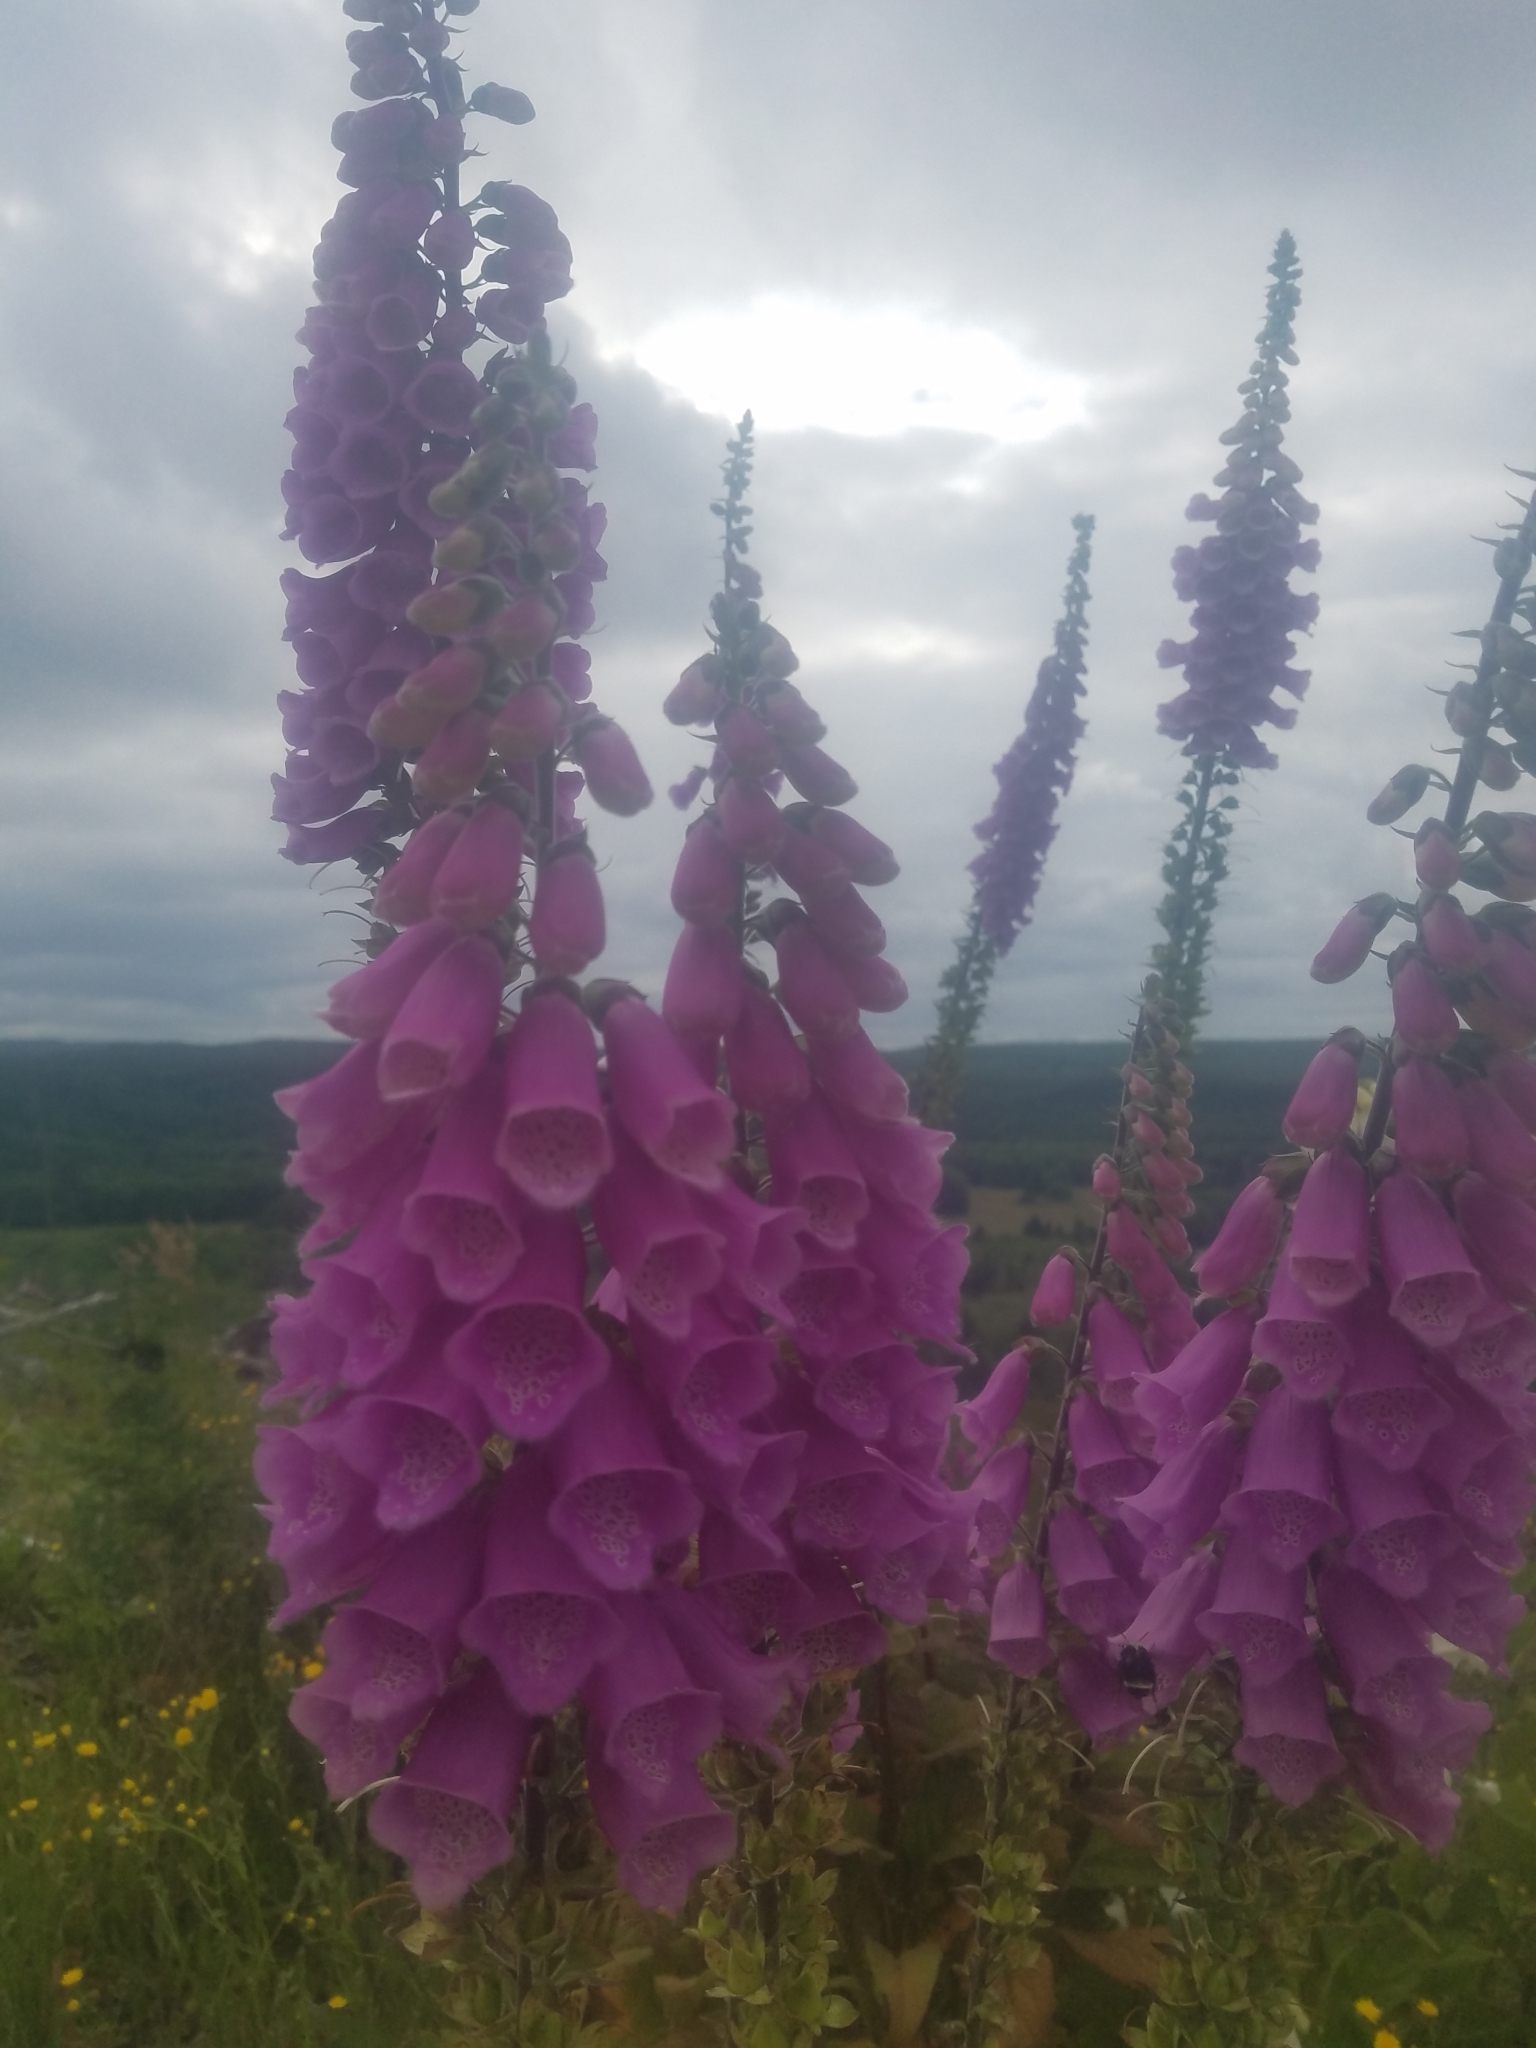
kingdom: Plantae
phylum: Tracheophyta
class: Magnoliopsida
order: Lamiales
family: Plantaginaceae
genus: Digitalis
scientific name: Digitalis purpurea
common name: Foxglove
